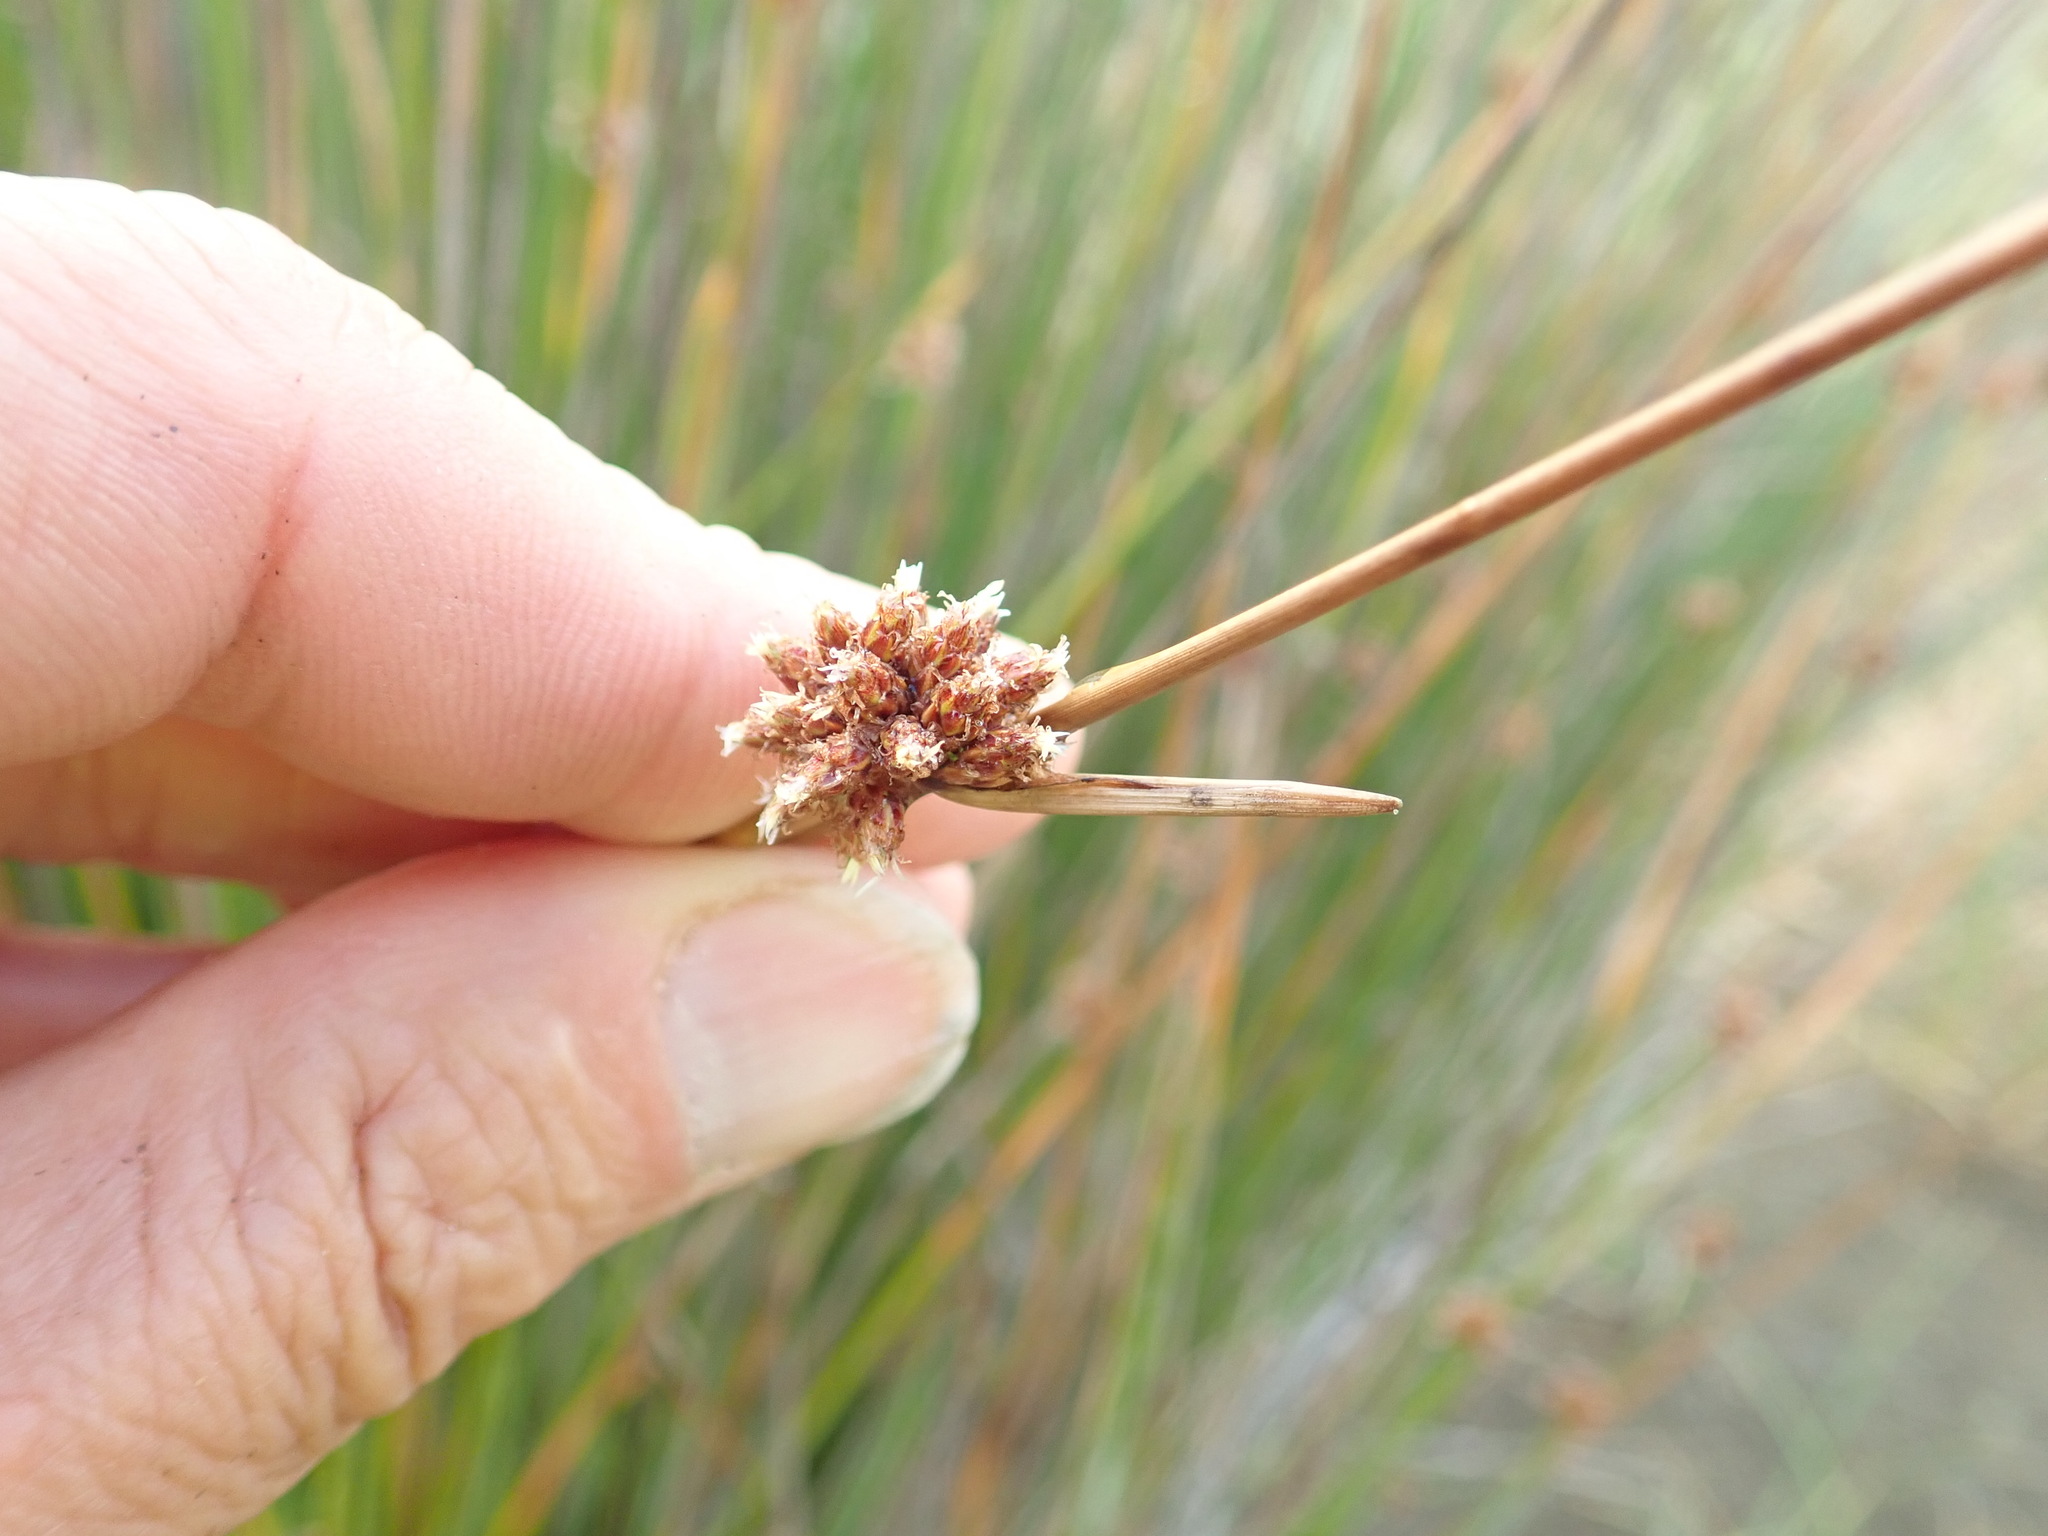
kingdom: Plantae
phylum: Tracheophyta
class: Liliopsida
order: Poales
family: Cyperaceae
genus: Ficinia
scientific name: Ficinia nodosa
